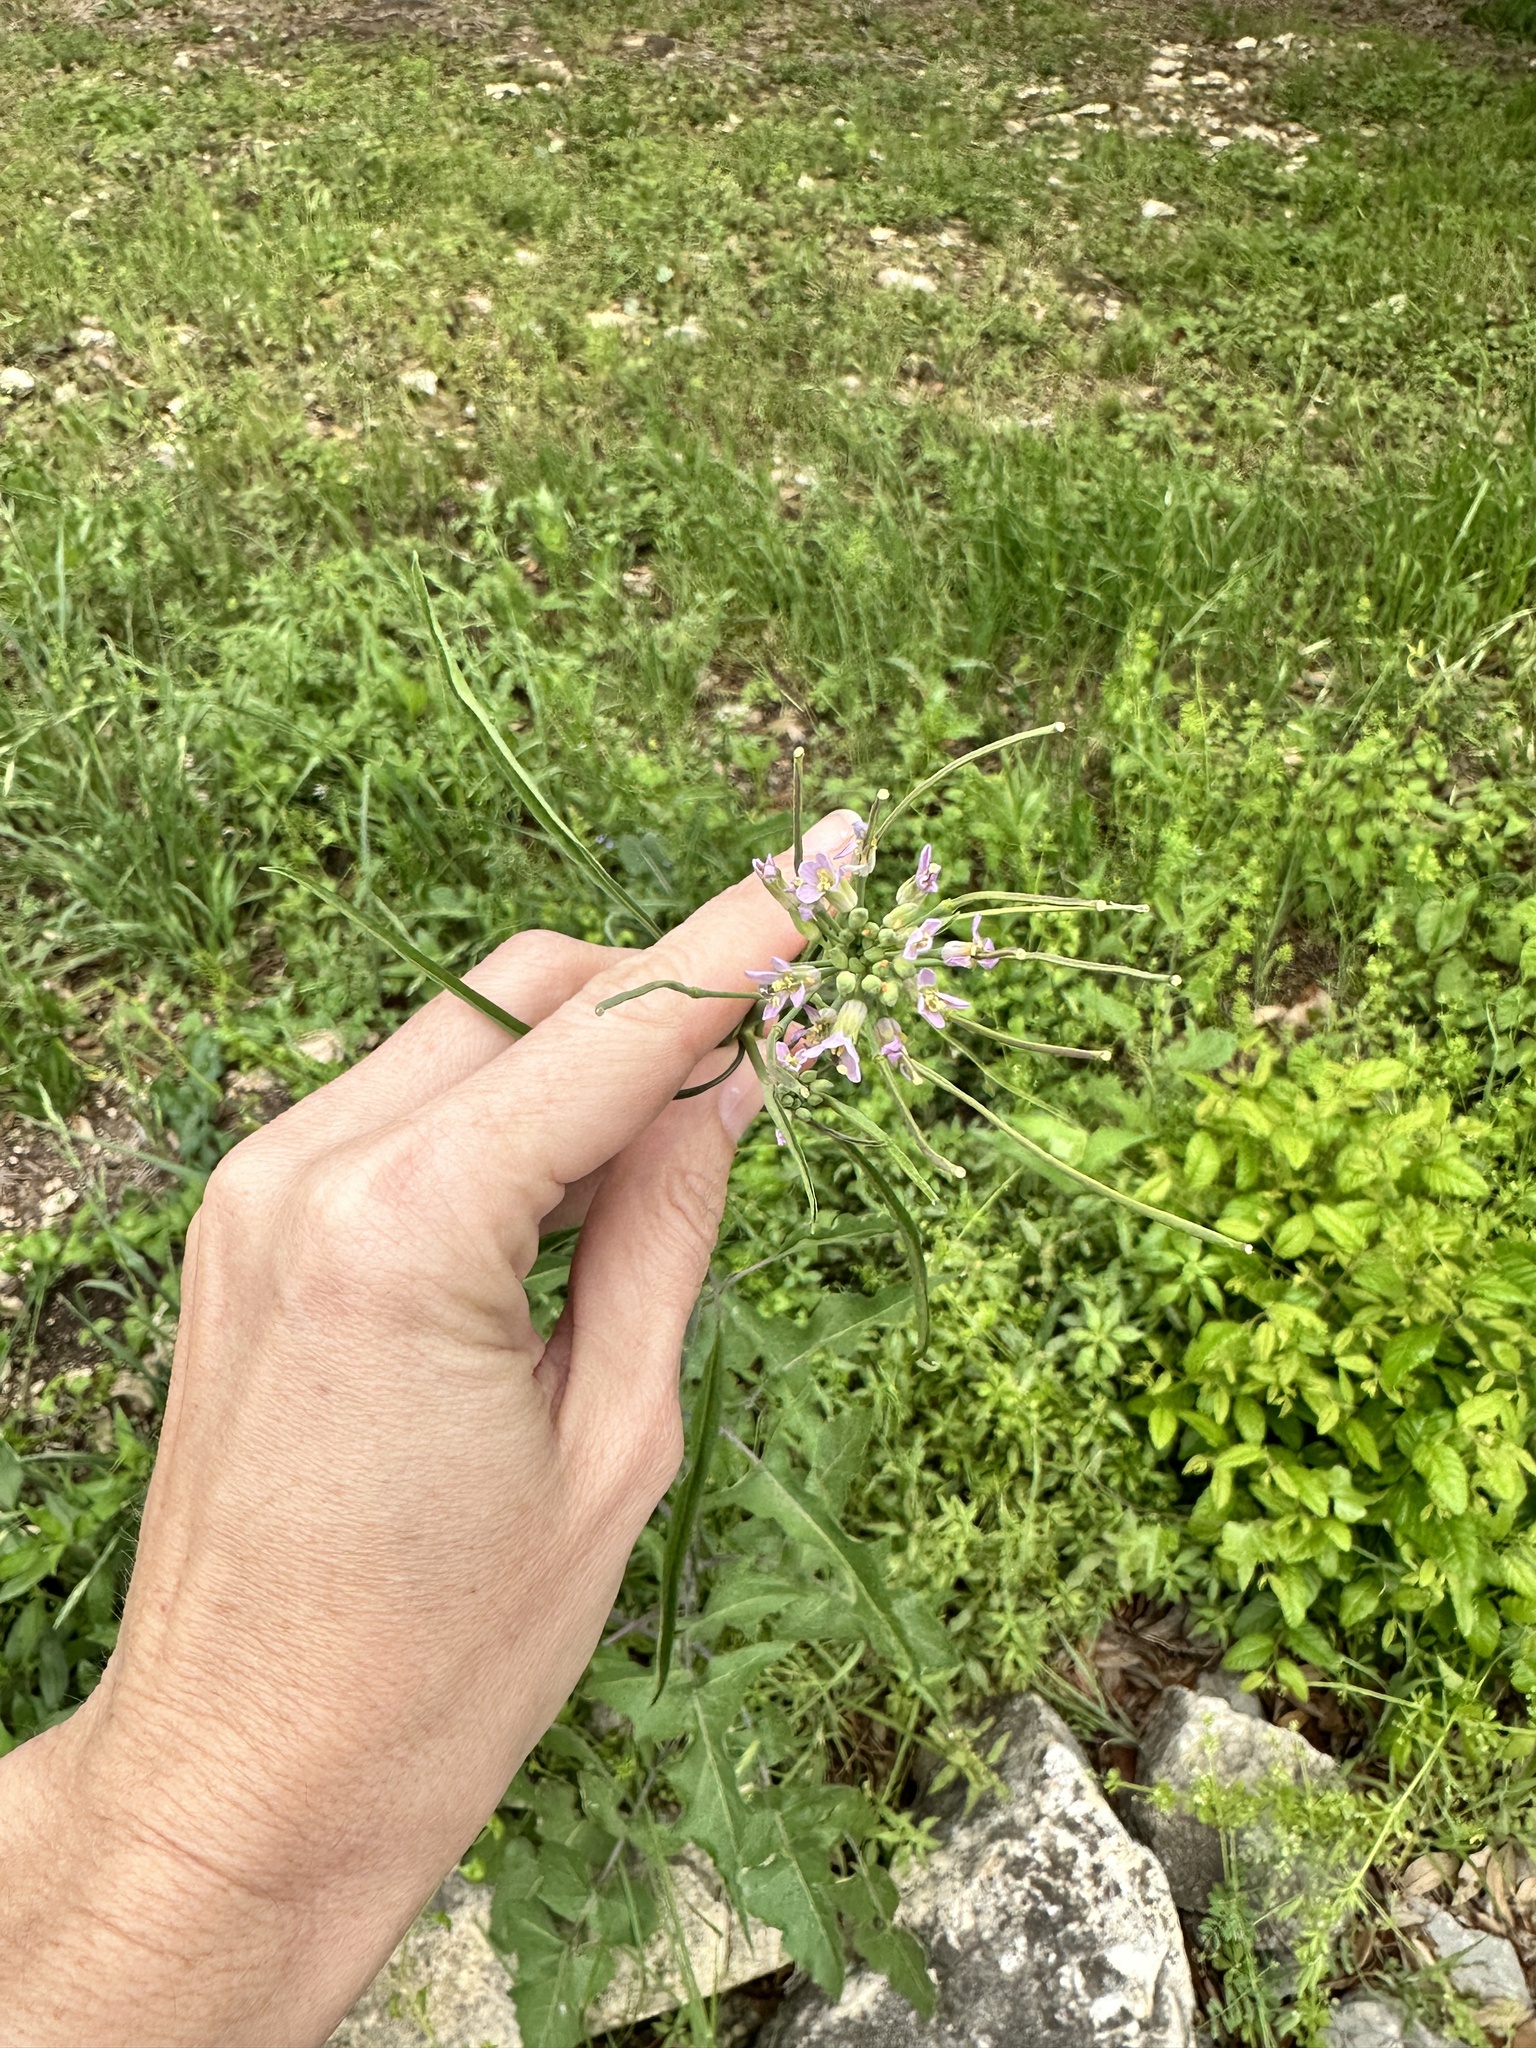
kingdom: Plantae
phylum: Tracheophyta
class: Magnoliopsida
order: Brassicales
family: Brassicaceae
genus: Streptanthus
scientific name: Streptanthus petiolaris
